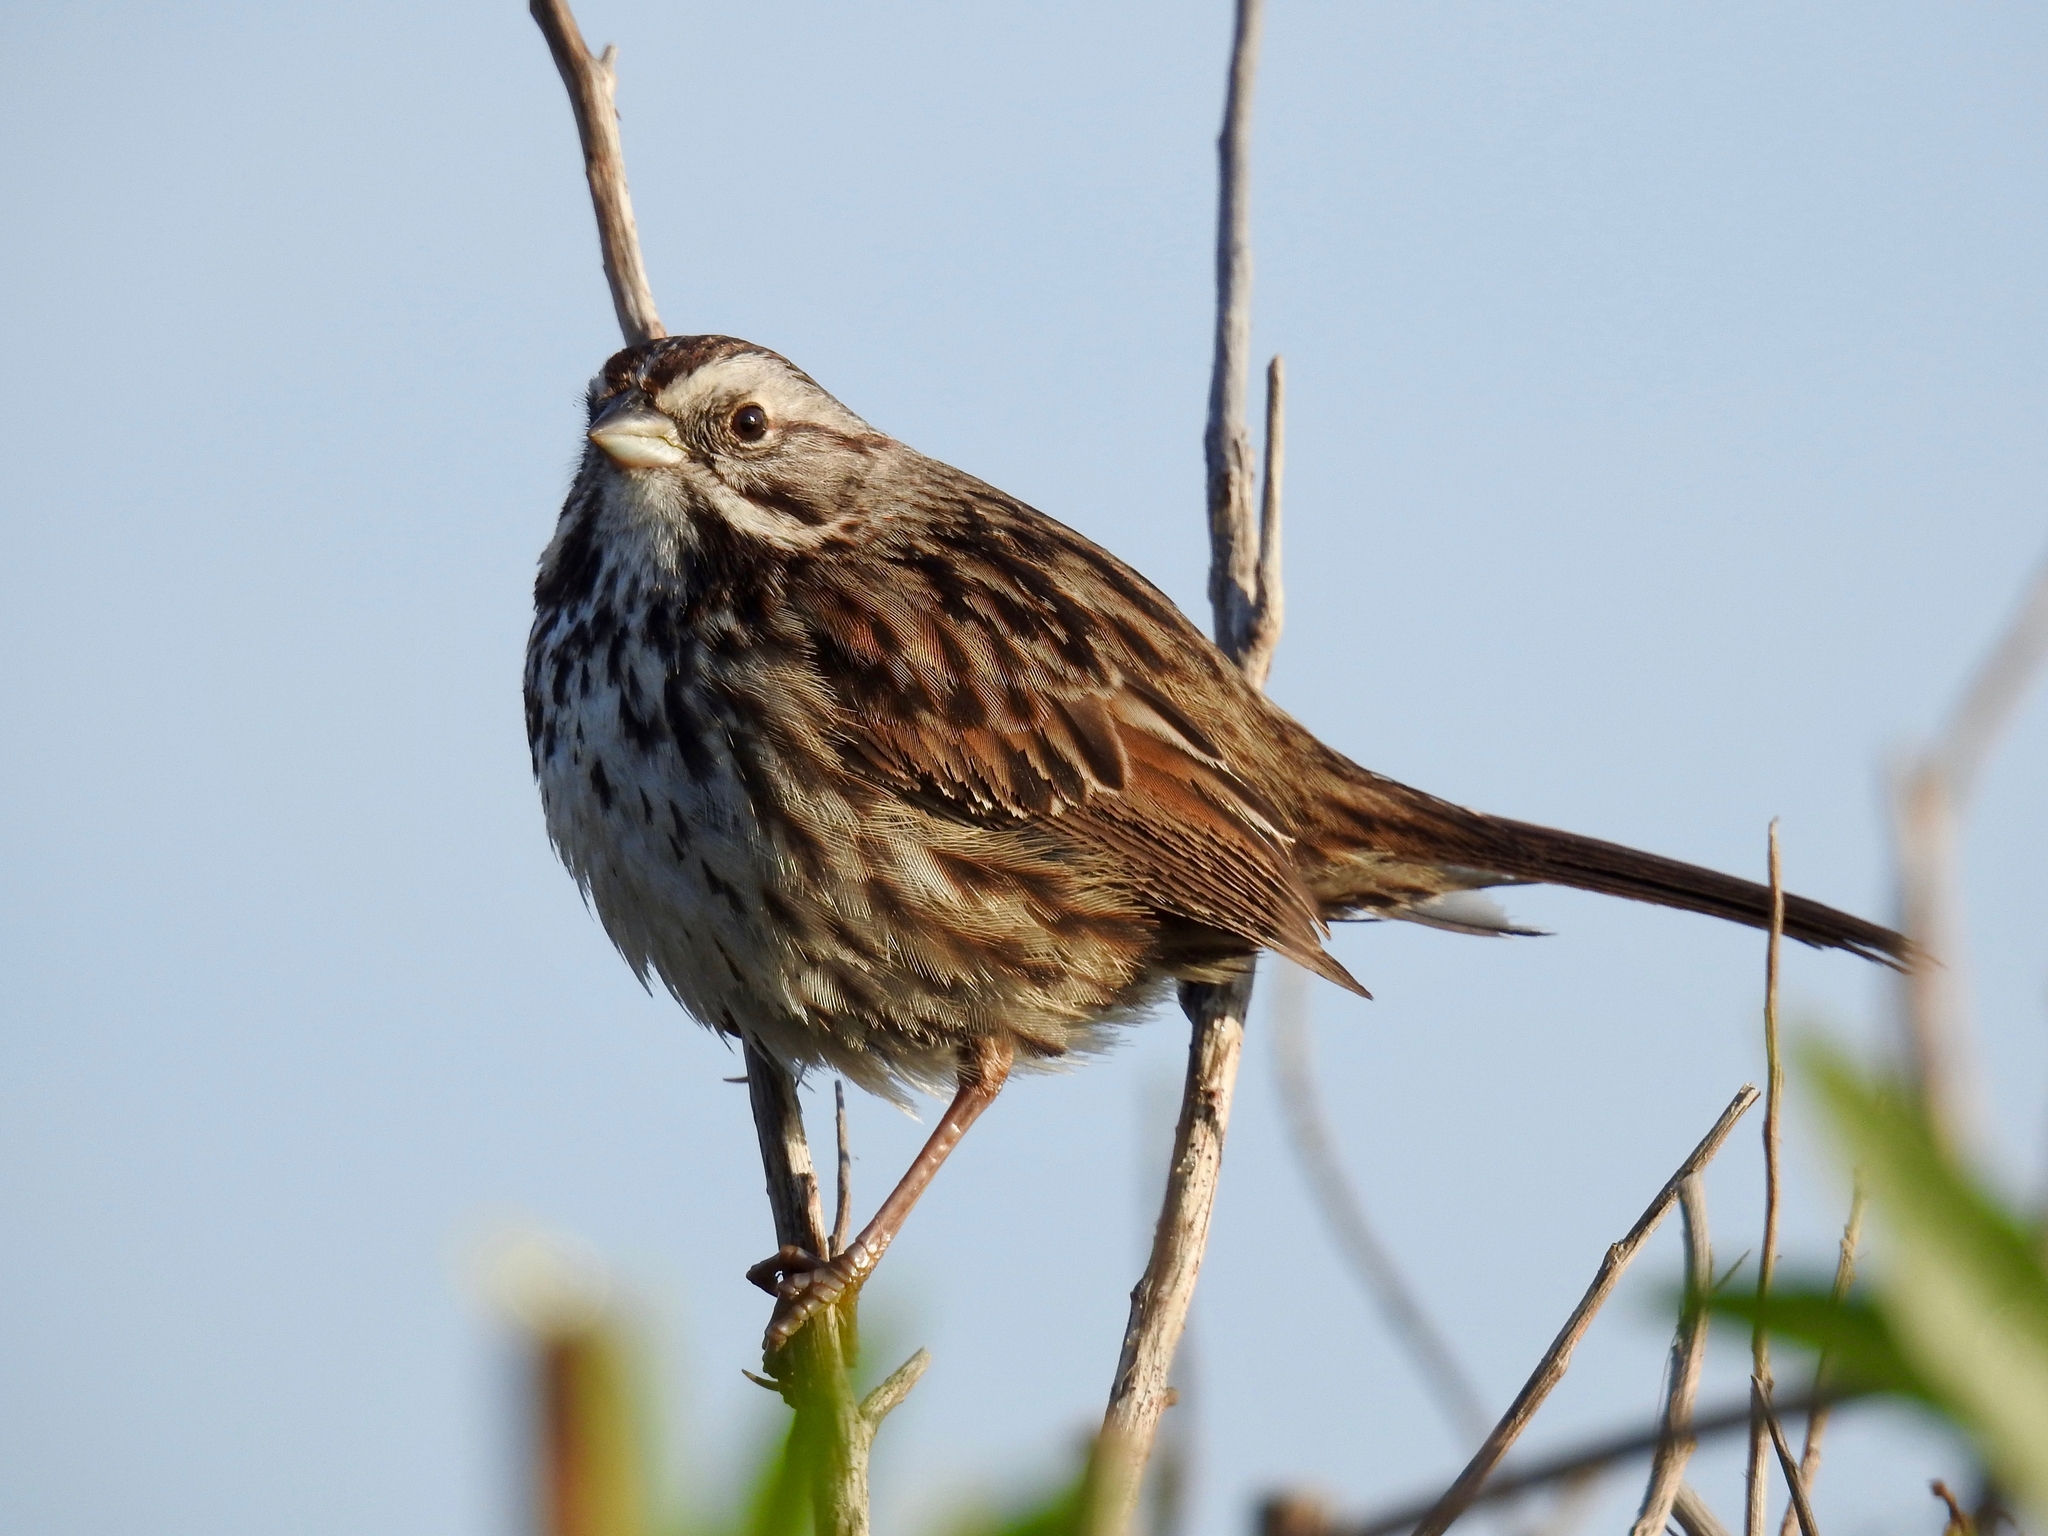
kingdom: Animalia
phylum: Chordata
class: Aves
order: Passeriformes
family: Passerellidae
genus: Melospiza
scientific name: Melospiza melodia
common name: Song sparrow
